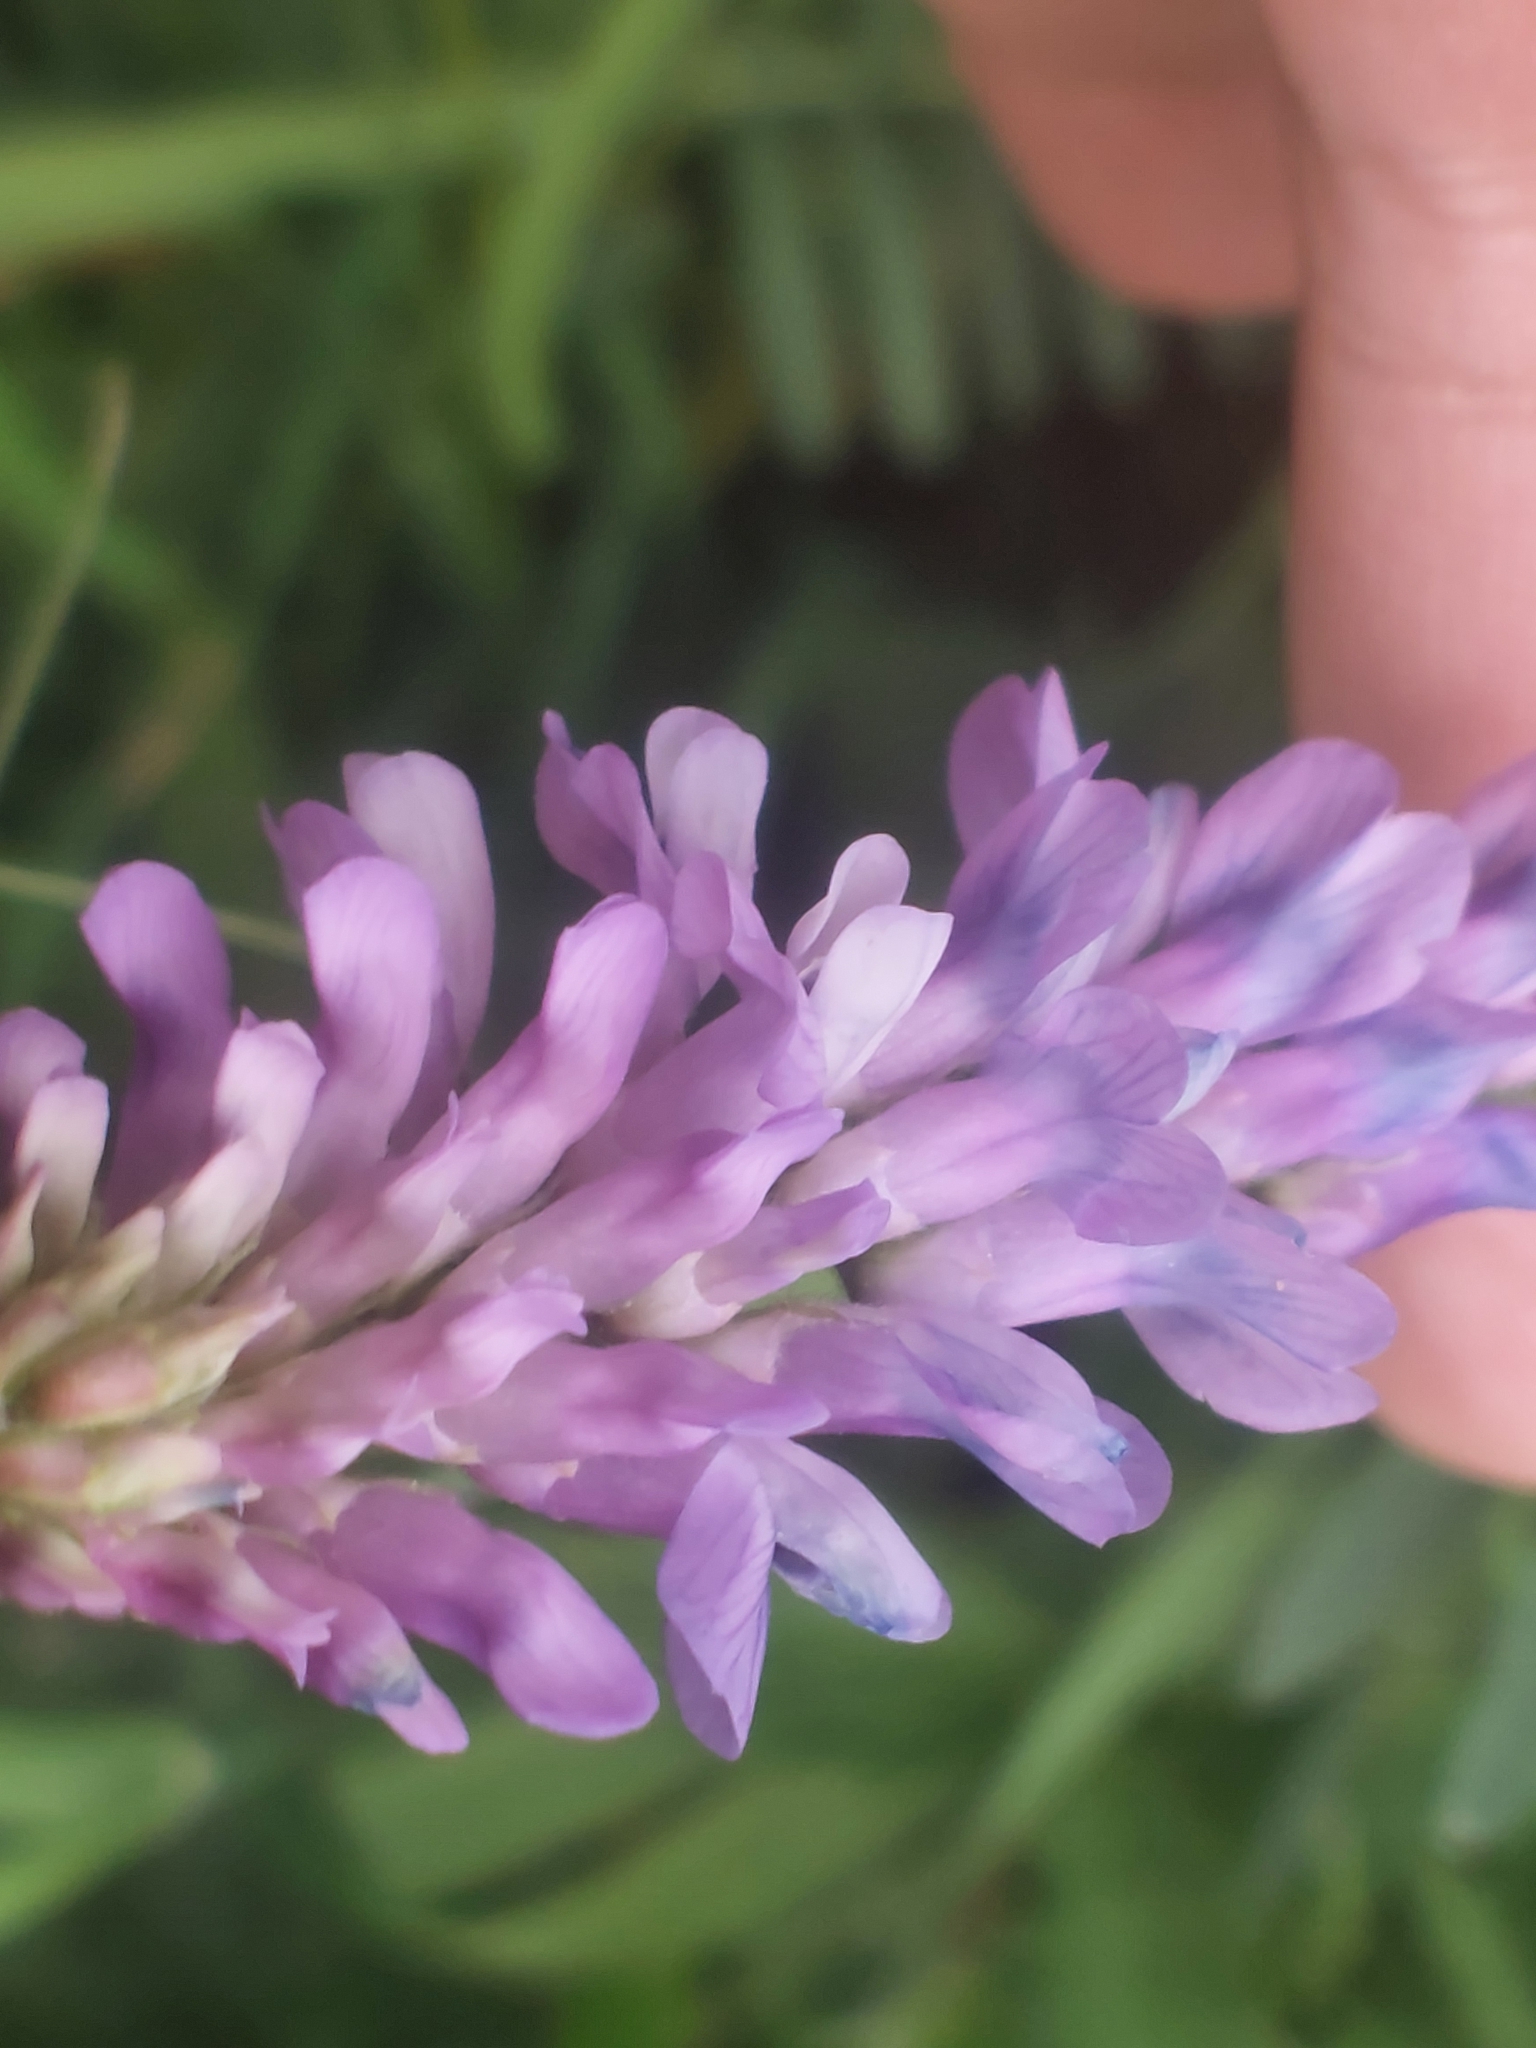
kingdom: Plantae
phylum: Tracheophyta
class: Magnoliopsida
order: Fabales
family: Fabaceae
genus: Vicia
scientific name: Vicia cracca
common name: Bird vetch
